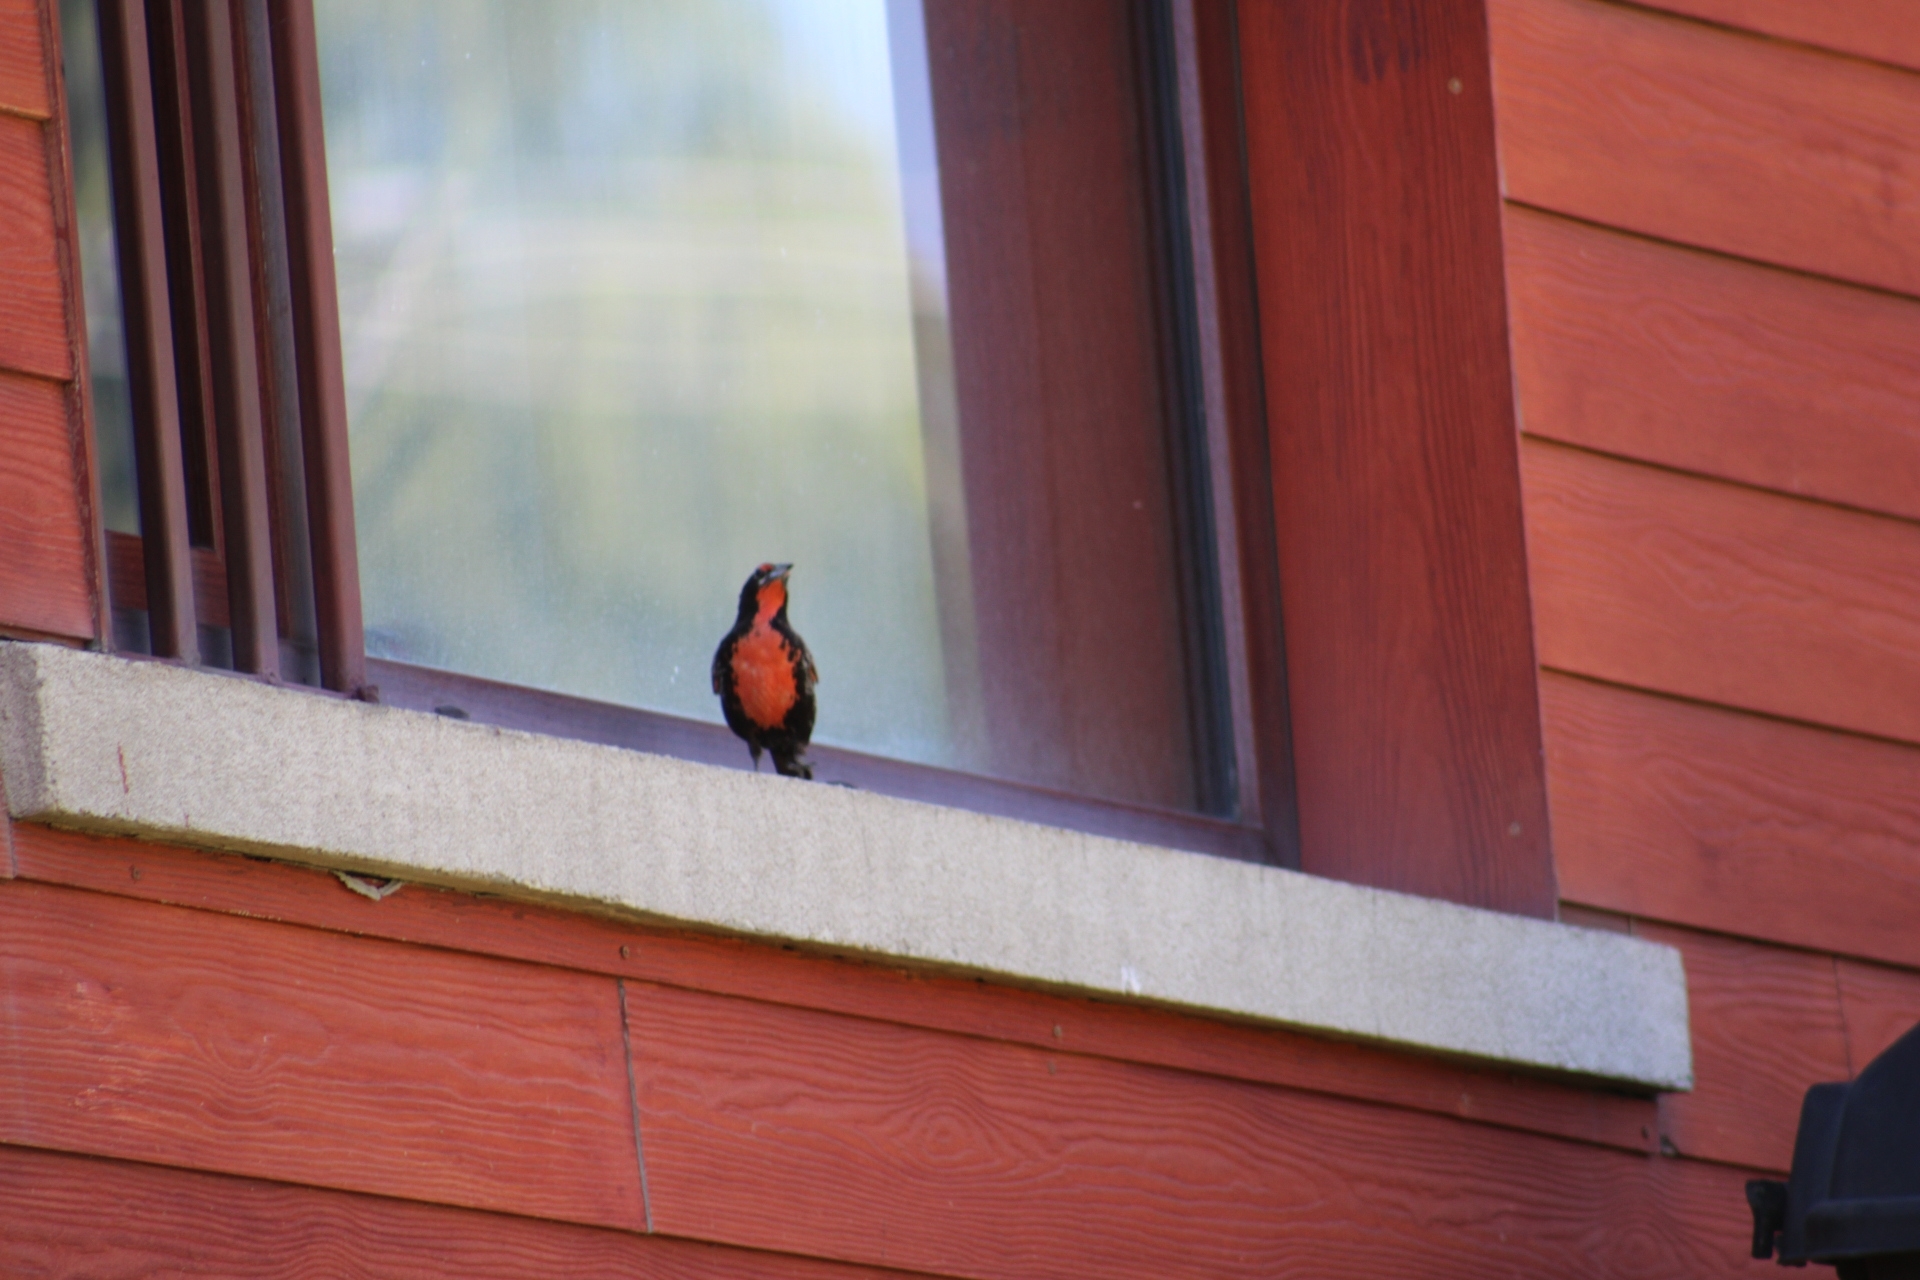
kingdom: Animalia
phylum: Chordata
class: Aves
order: Passeriformes
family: Icteridae
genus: Sturnella
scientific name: Sturnella loyca
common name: Long-tailed meadowlark
